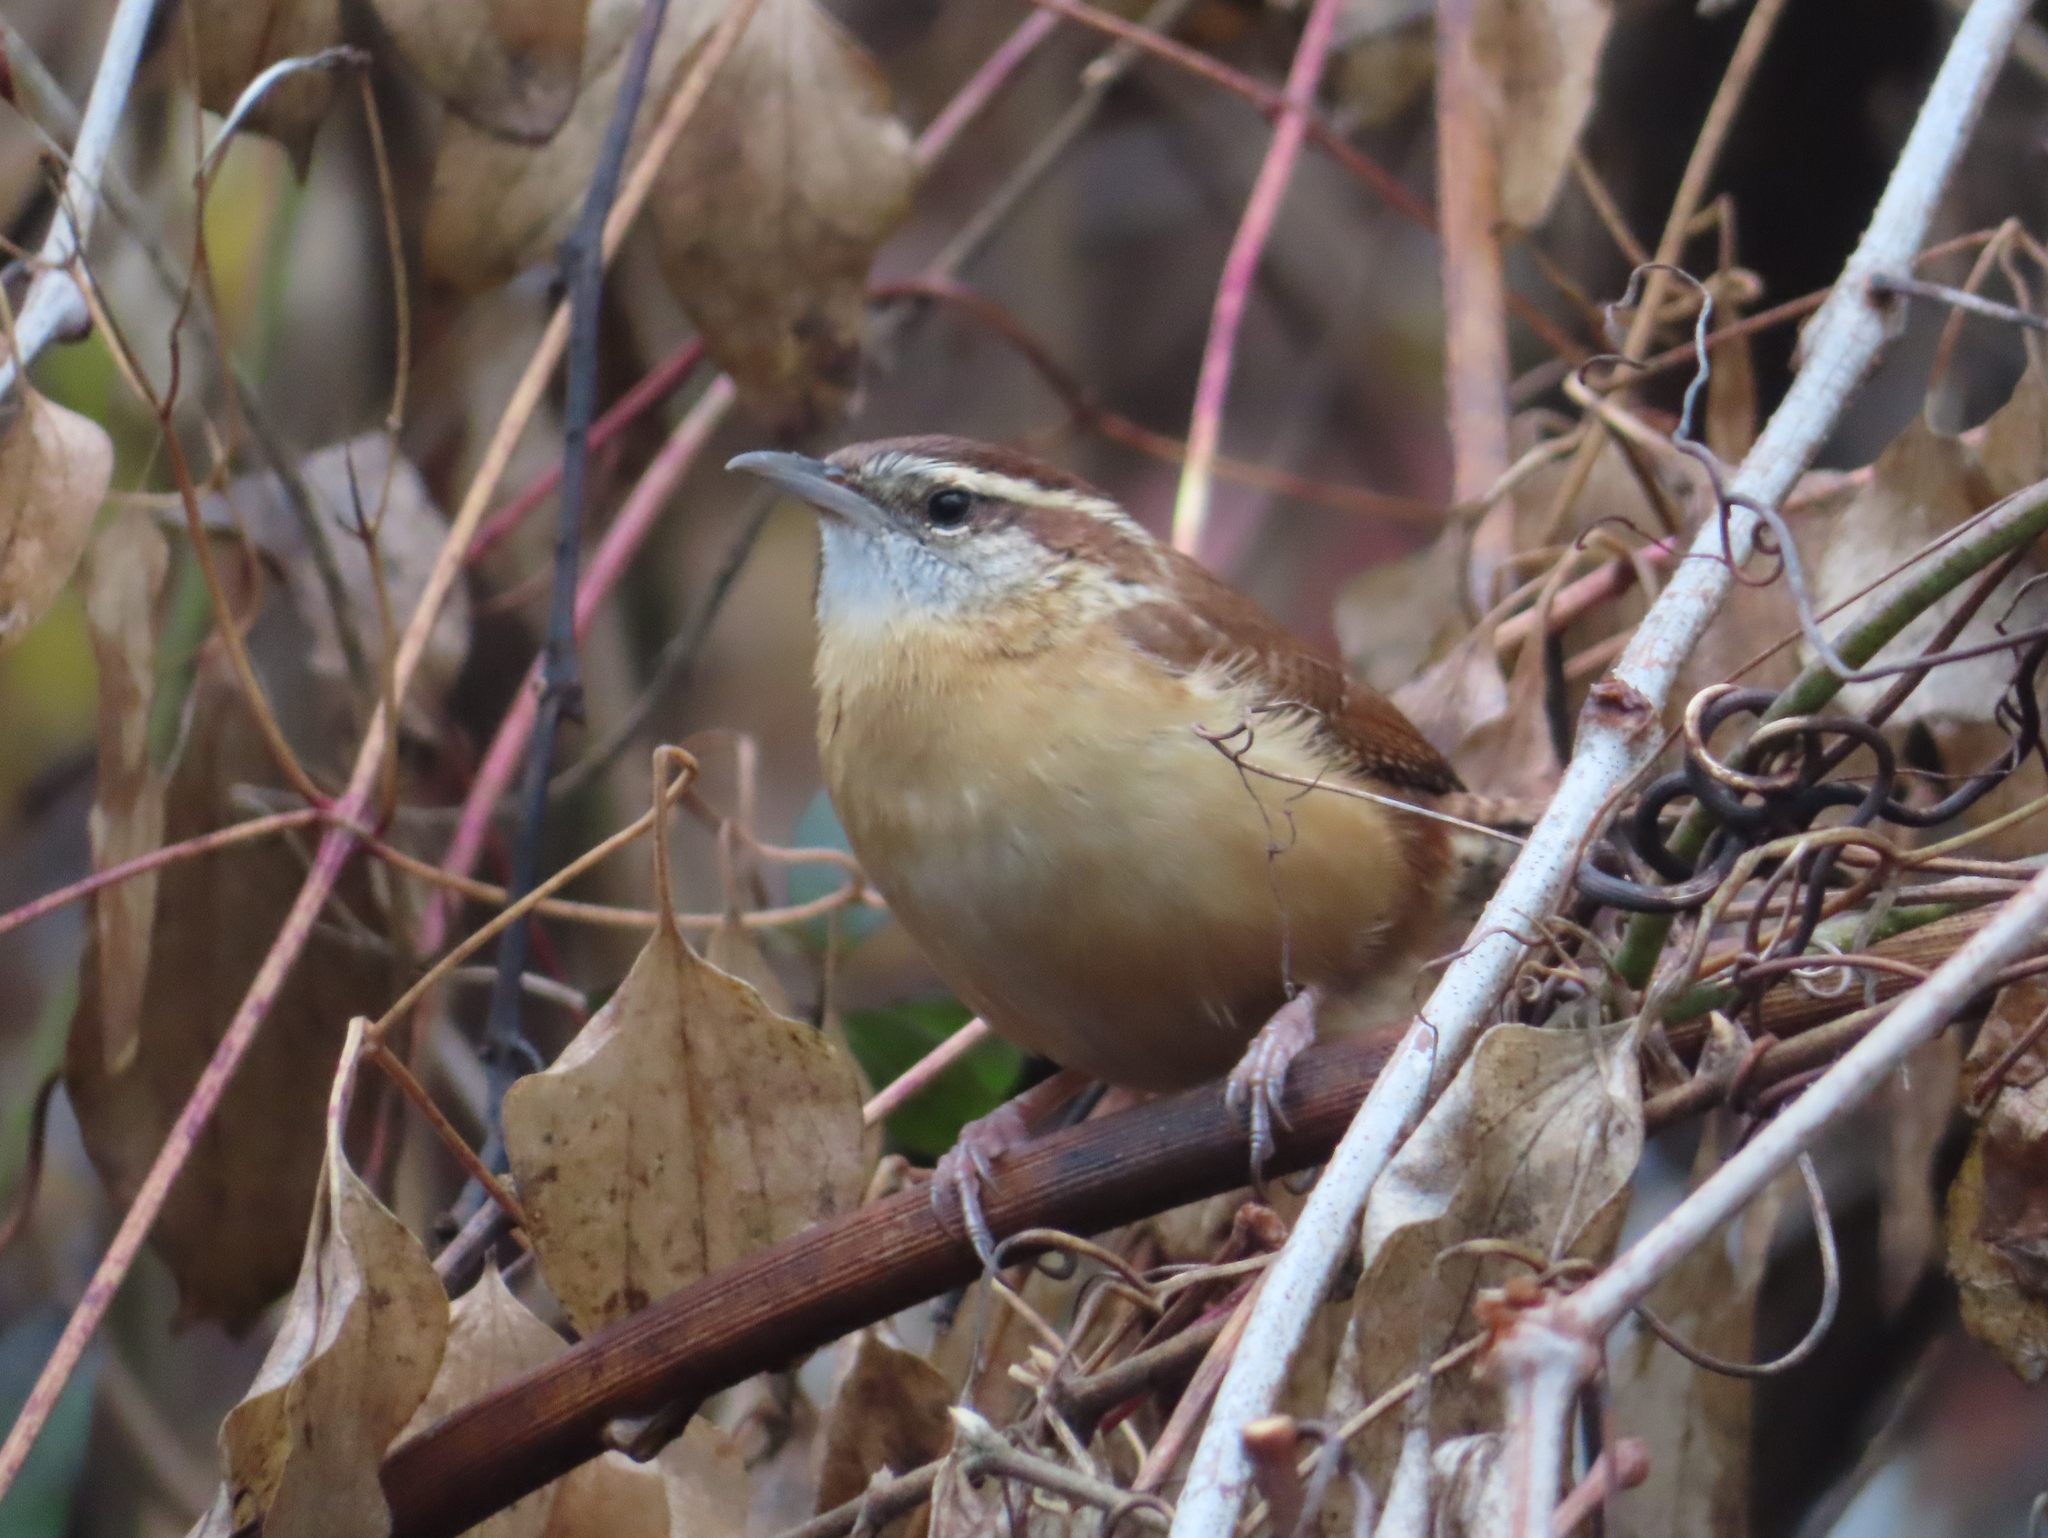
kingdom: Animalia
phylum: Chordata
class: Aves
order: Passeriformes
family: Troglodytidae
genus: Thryothorus
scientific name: Thryothorus ludovicianus
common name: Carolina wren
